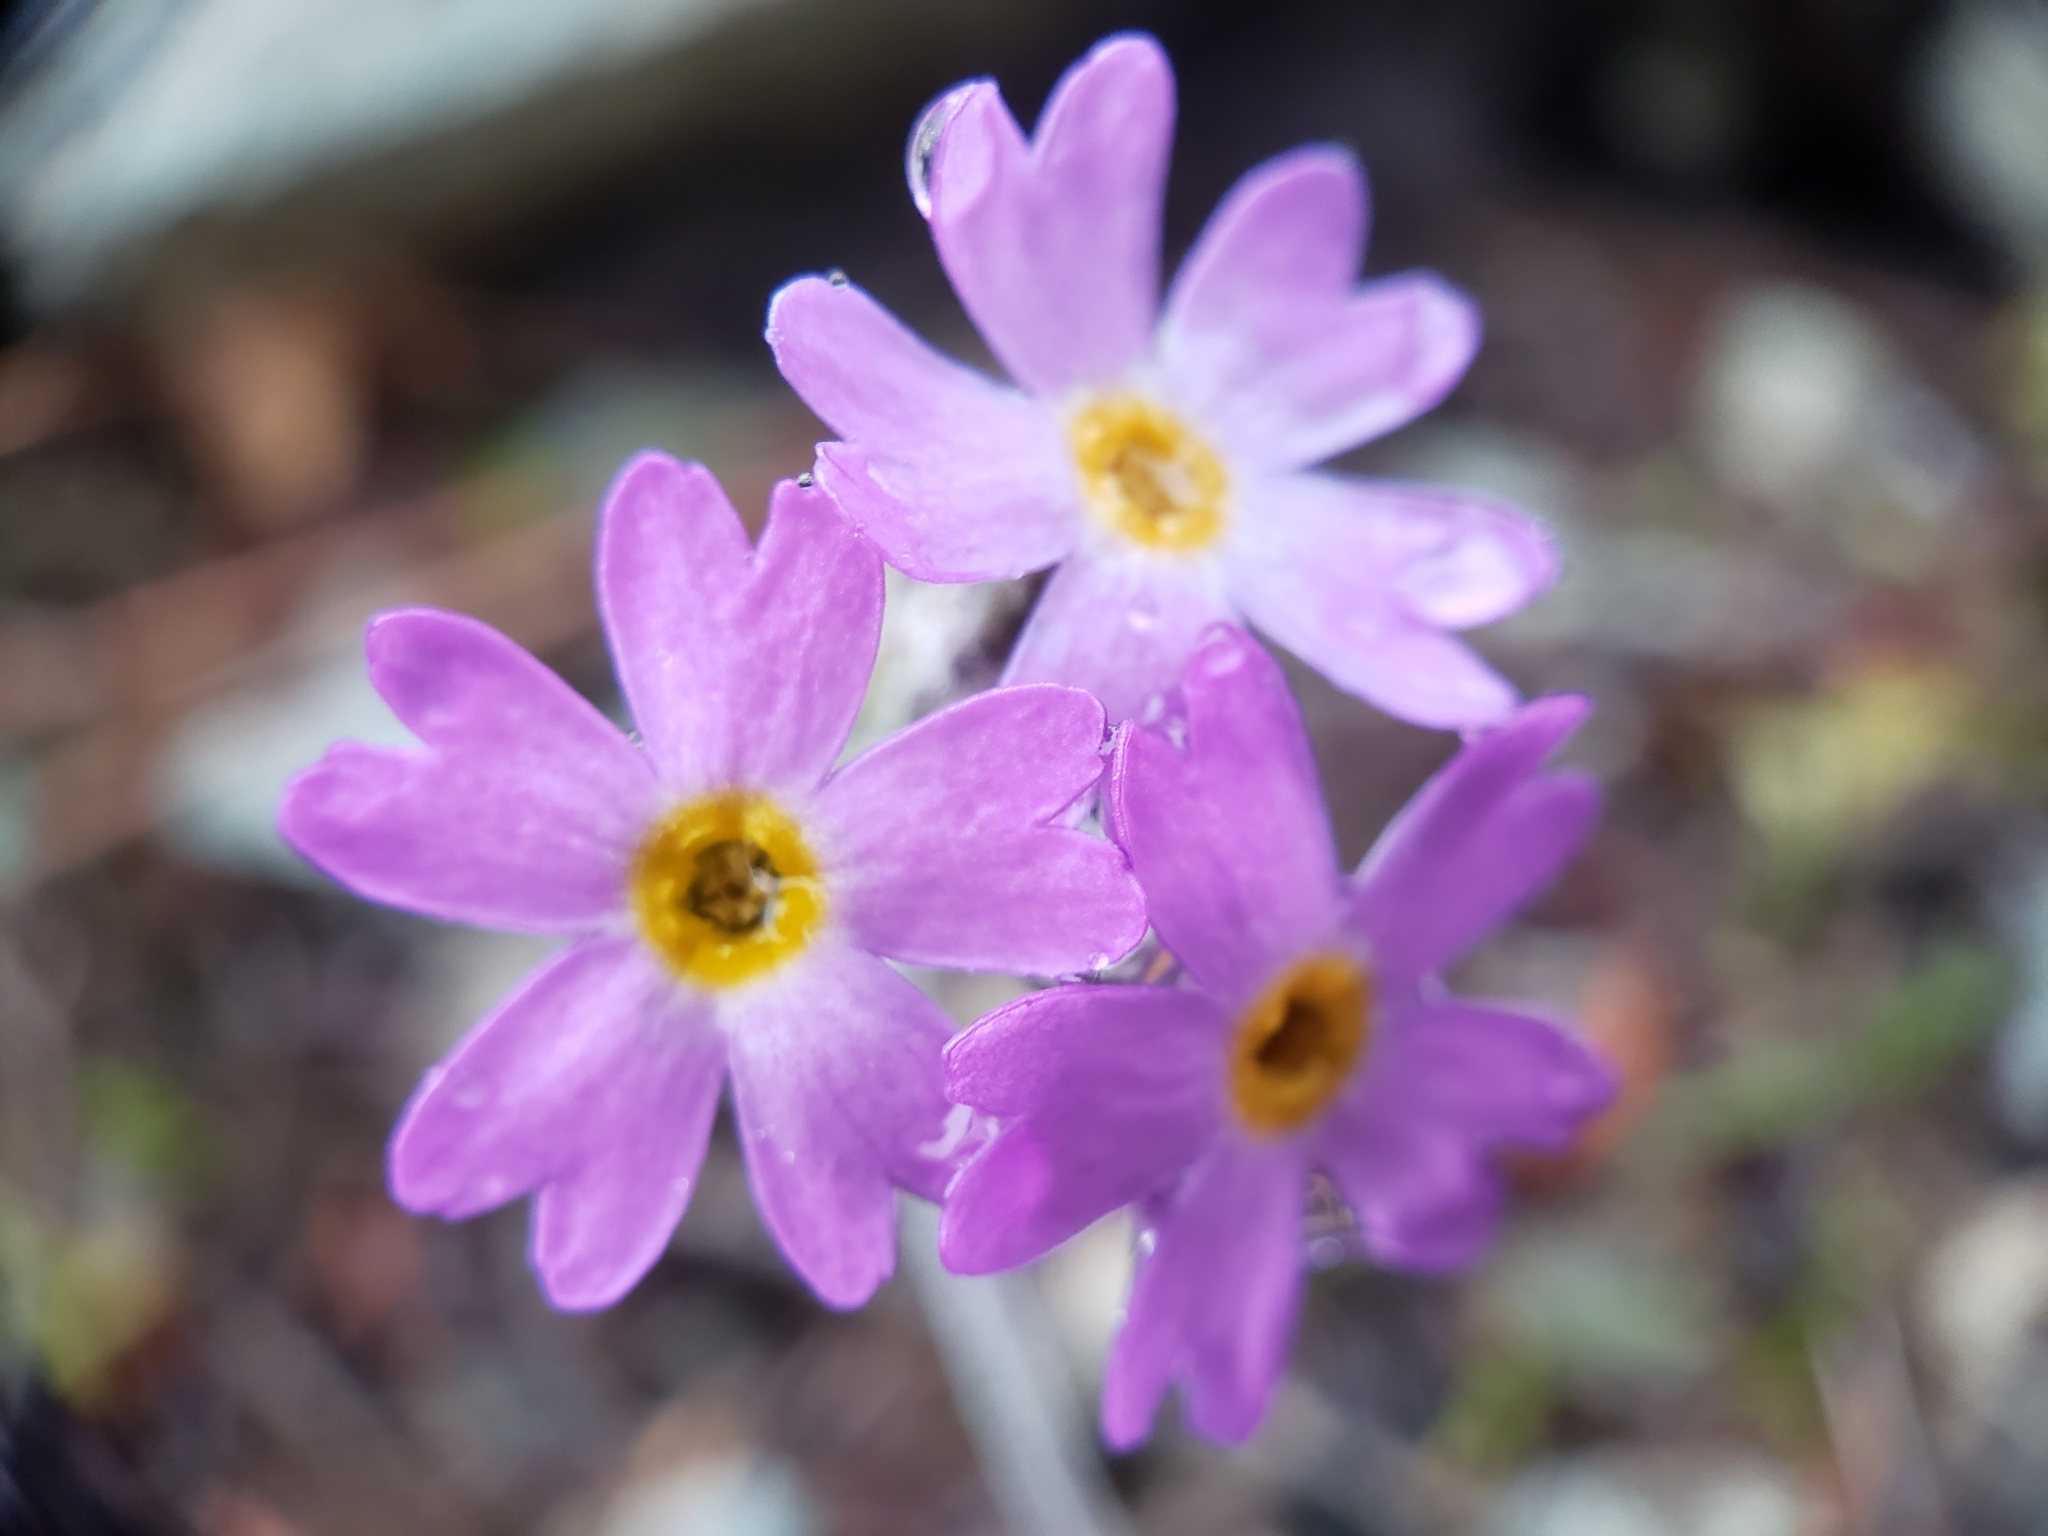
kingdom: Plantae
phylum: Tracheophyta
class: Magnoliopsida
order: Ericales
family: Primulaceae
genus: Primula
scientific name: Primula mistassinica
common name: Bird's-eye primrose
